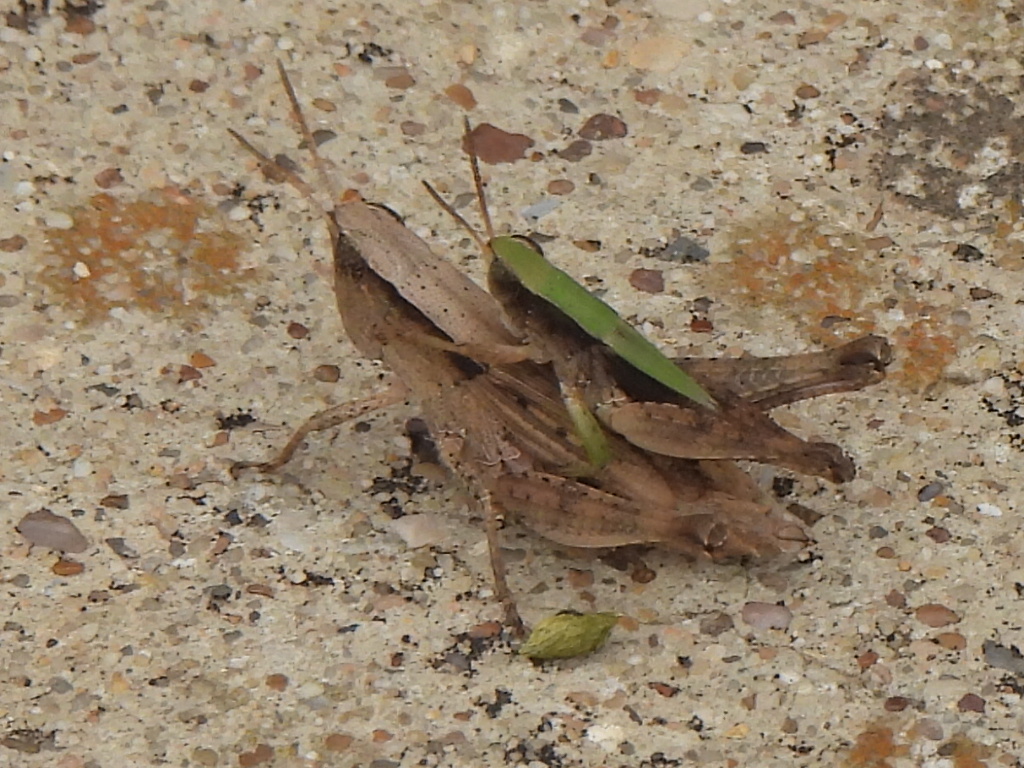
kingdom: Animalia
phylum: Arthropoda
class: Insecta
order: Orthoptera
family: Acrididae
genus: Dichromorpha
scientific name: Dichromorpha viridis
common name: Short-winged green grasshopper
